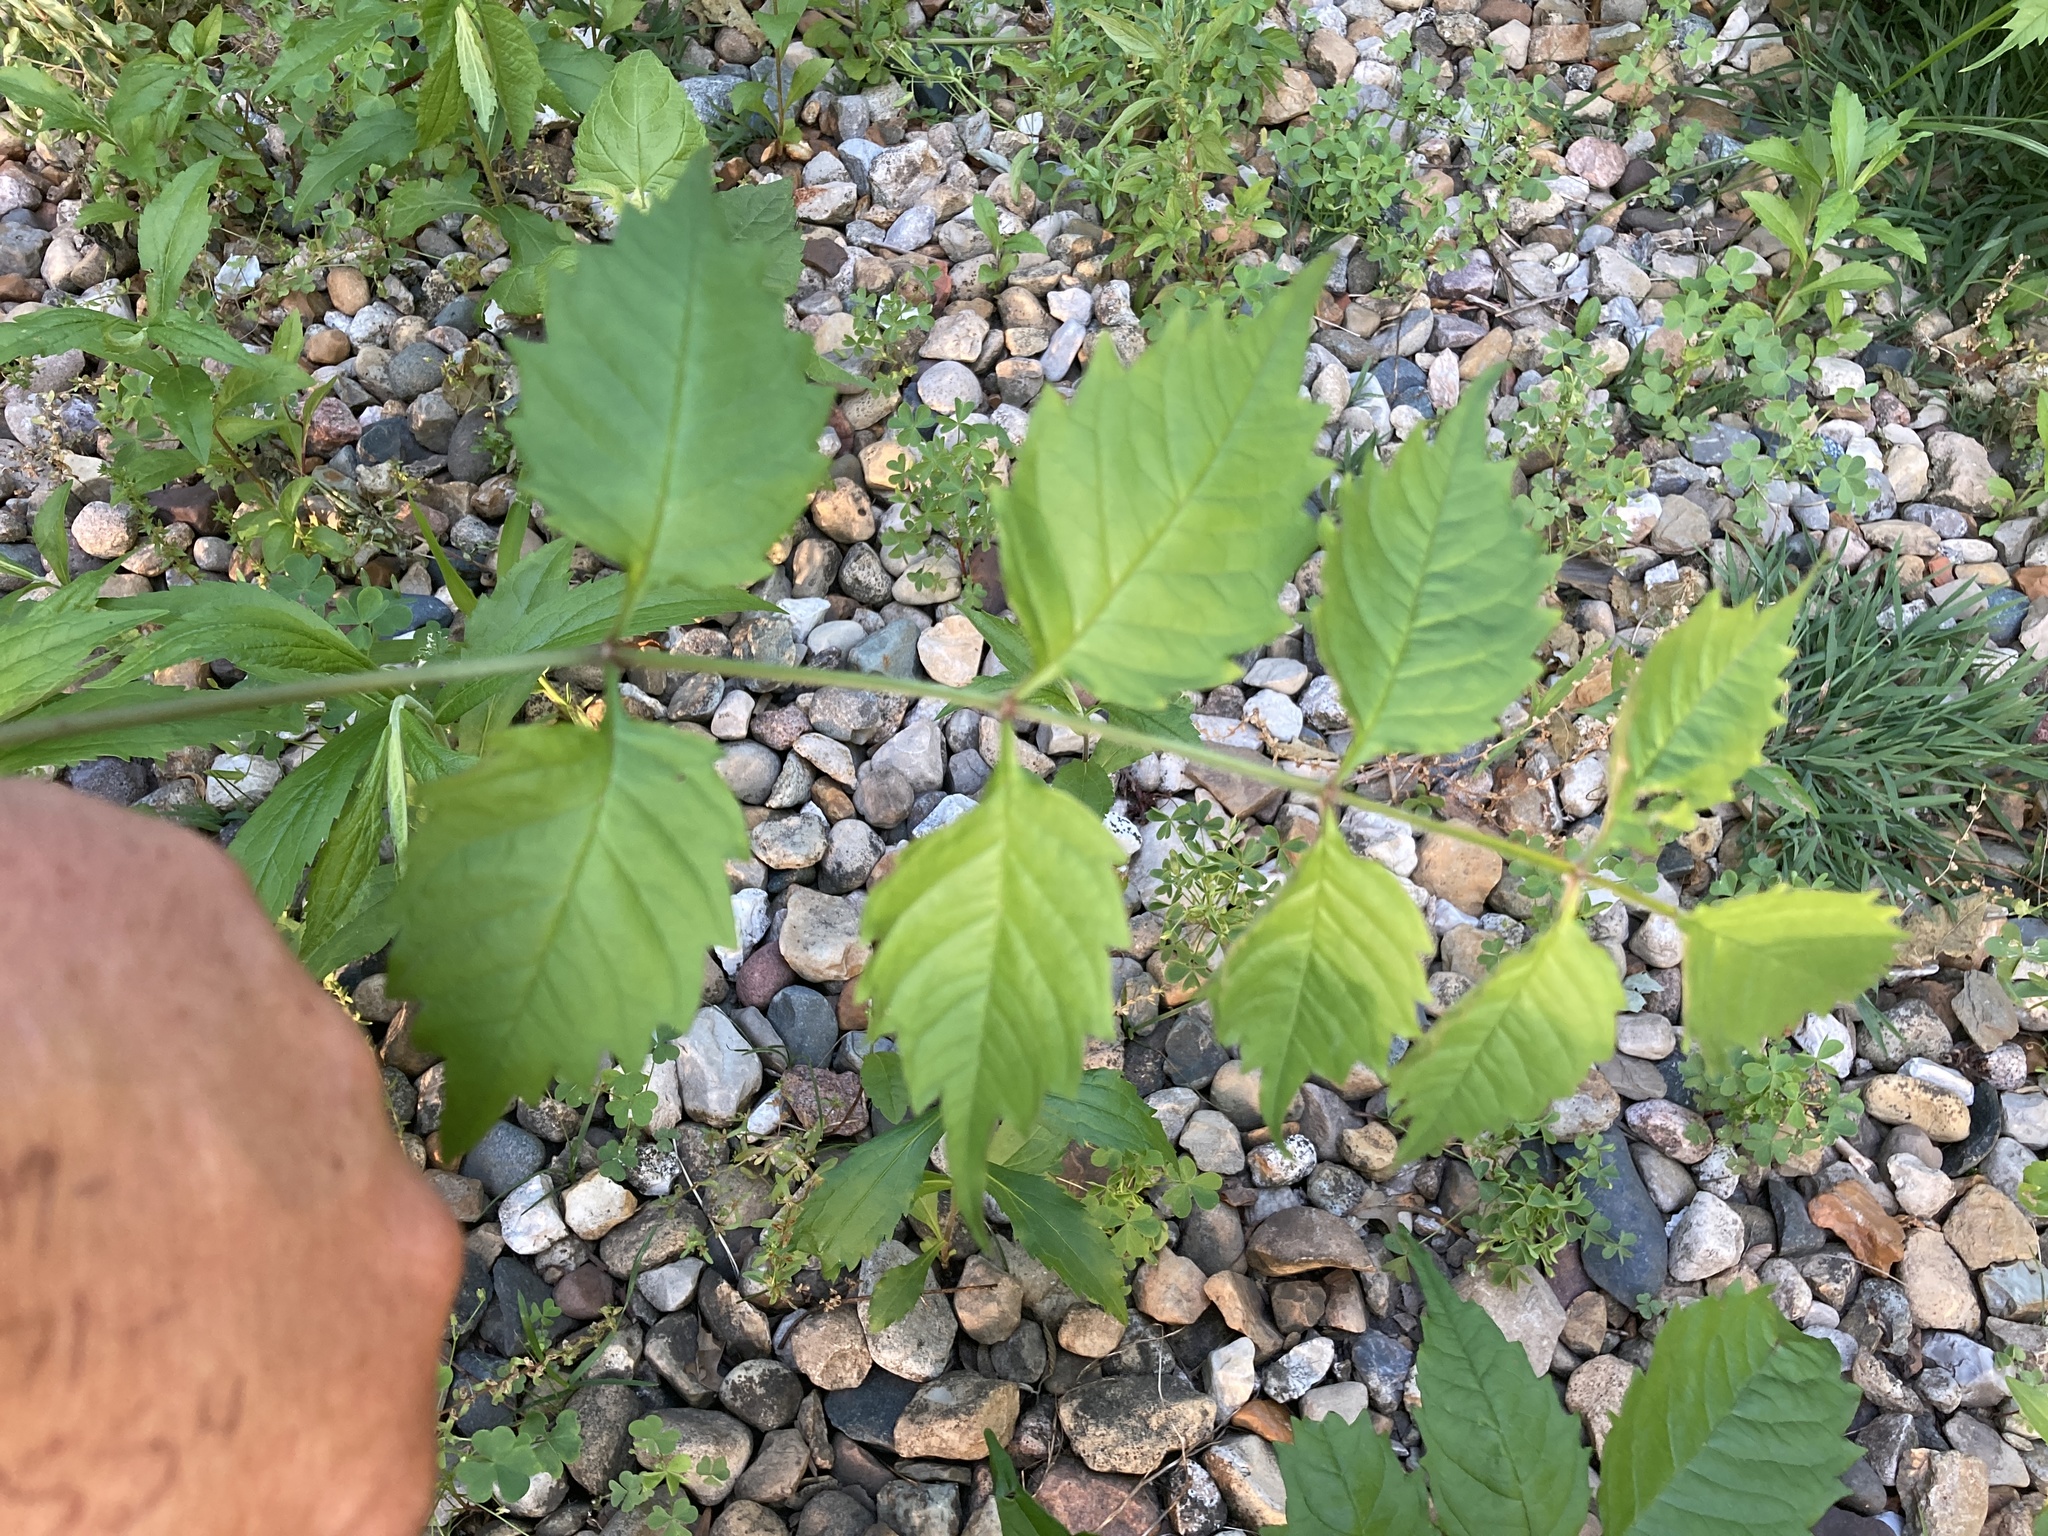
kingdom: Plantae
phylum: Tracheophyta
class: Magnoliopsida
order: Lamiales
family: Bignoniaceae
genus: Campsis
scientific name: Campsis radicans
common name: Trumpet-creeper
